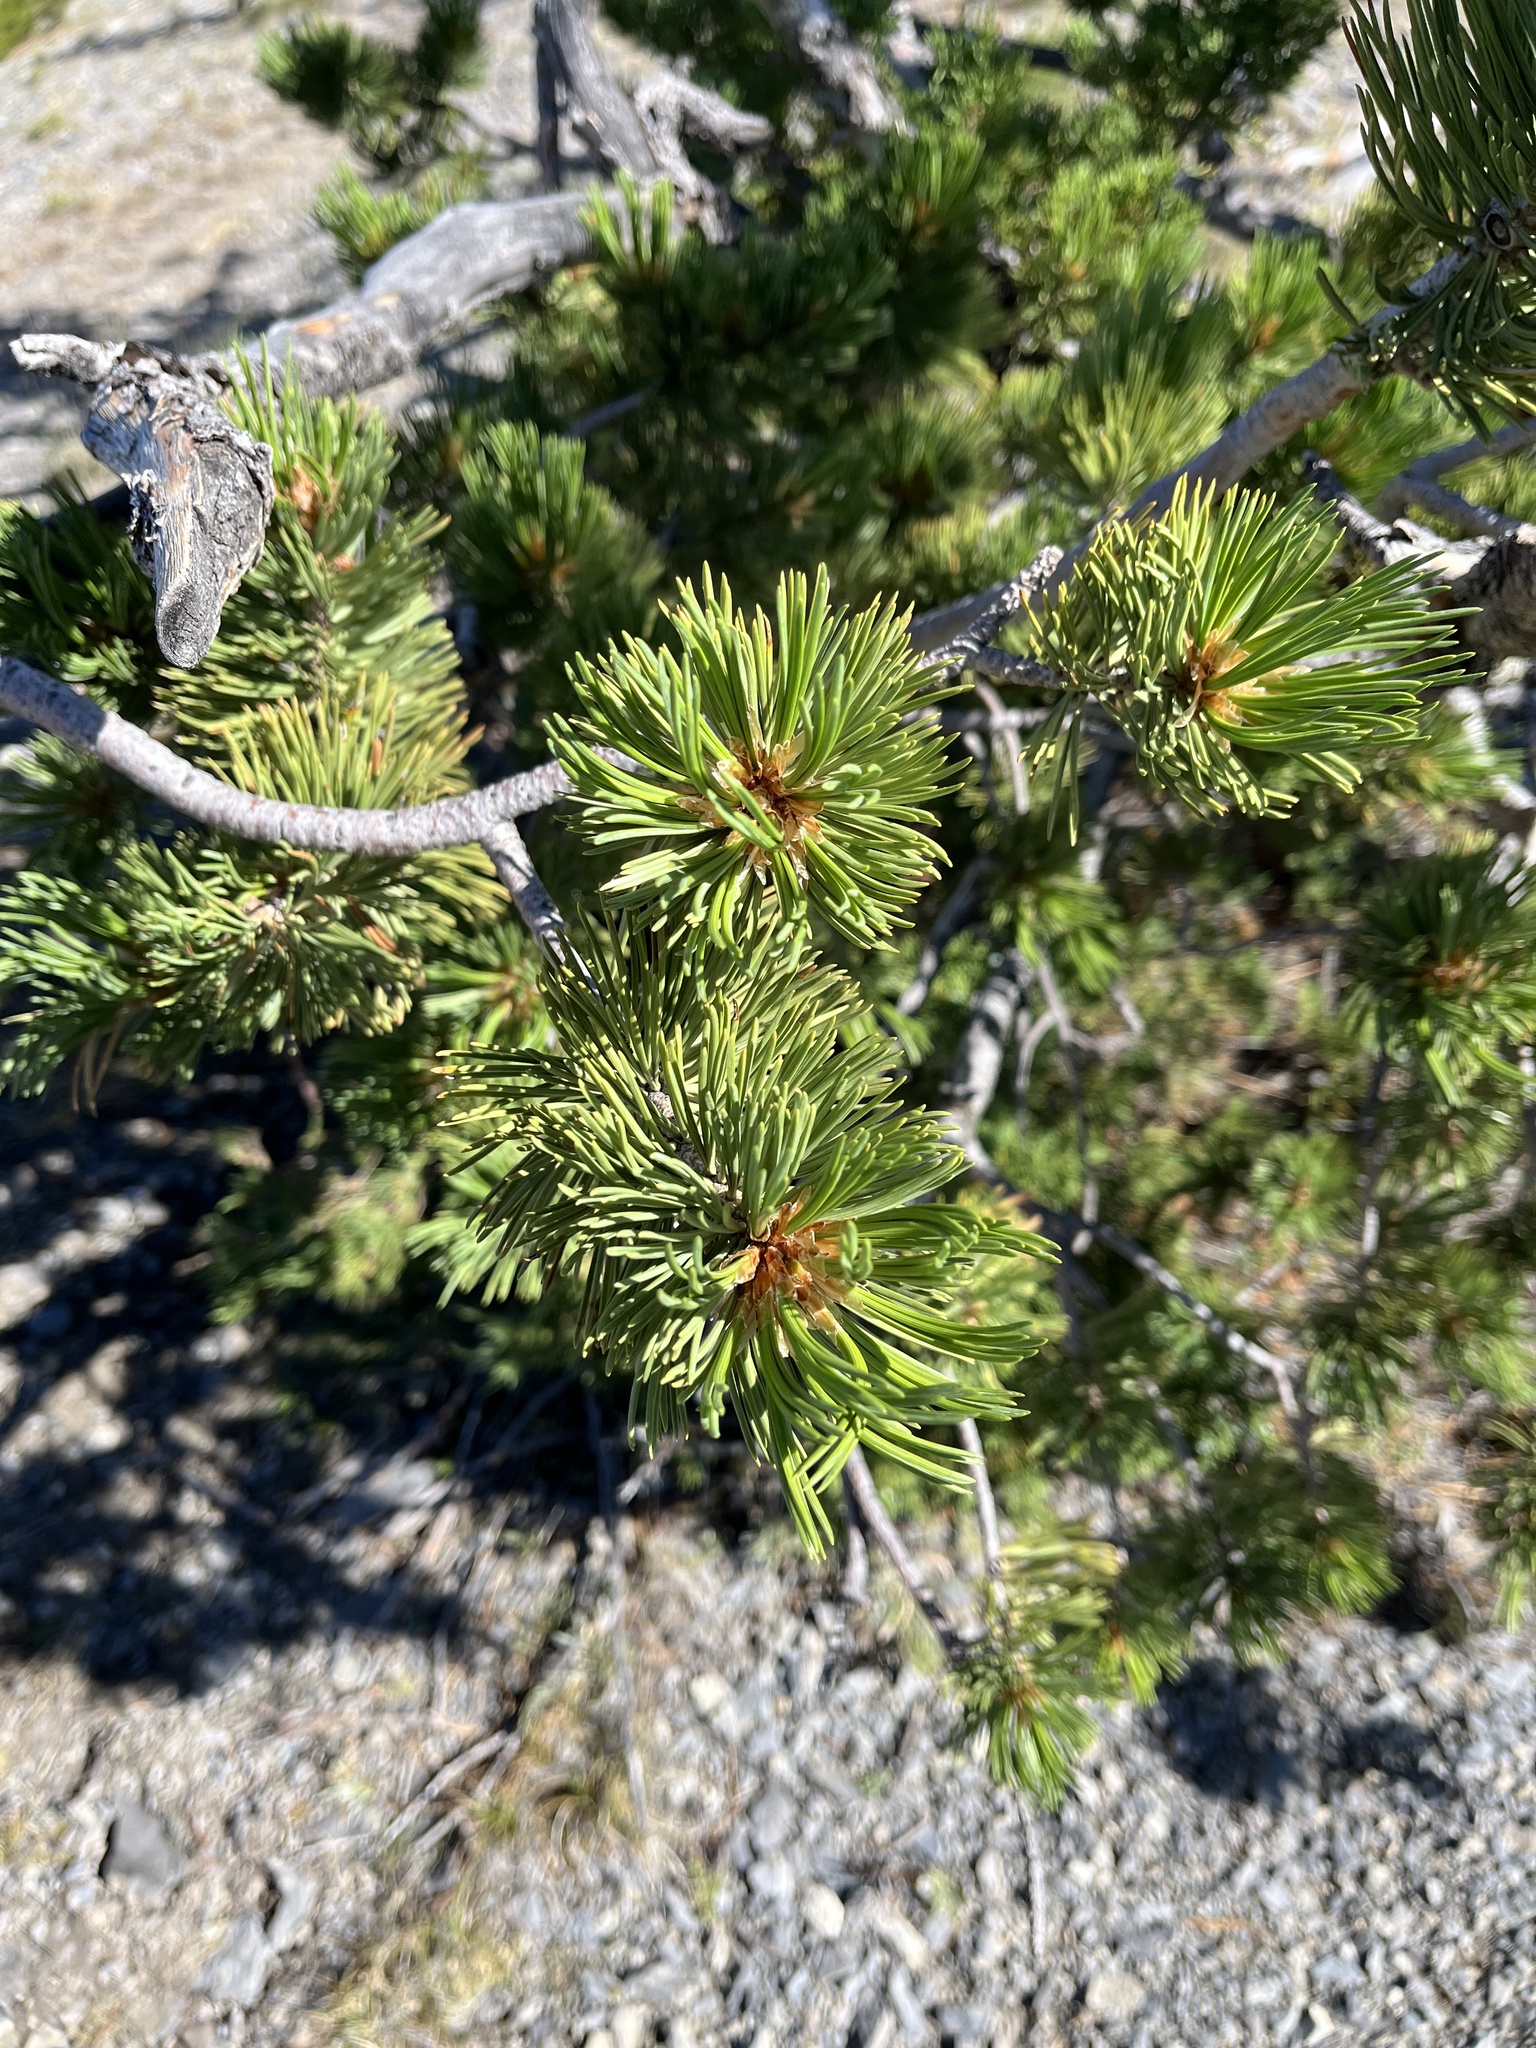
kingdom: Plantae
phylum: Tracheophyta
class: Pinopsida
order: Pinales
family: Pinaceae
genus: Pinus
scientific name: Pinus flexilis
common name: Limber pine
